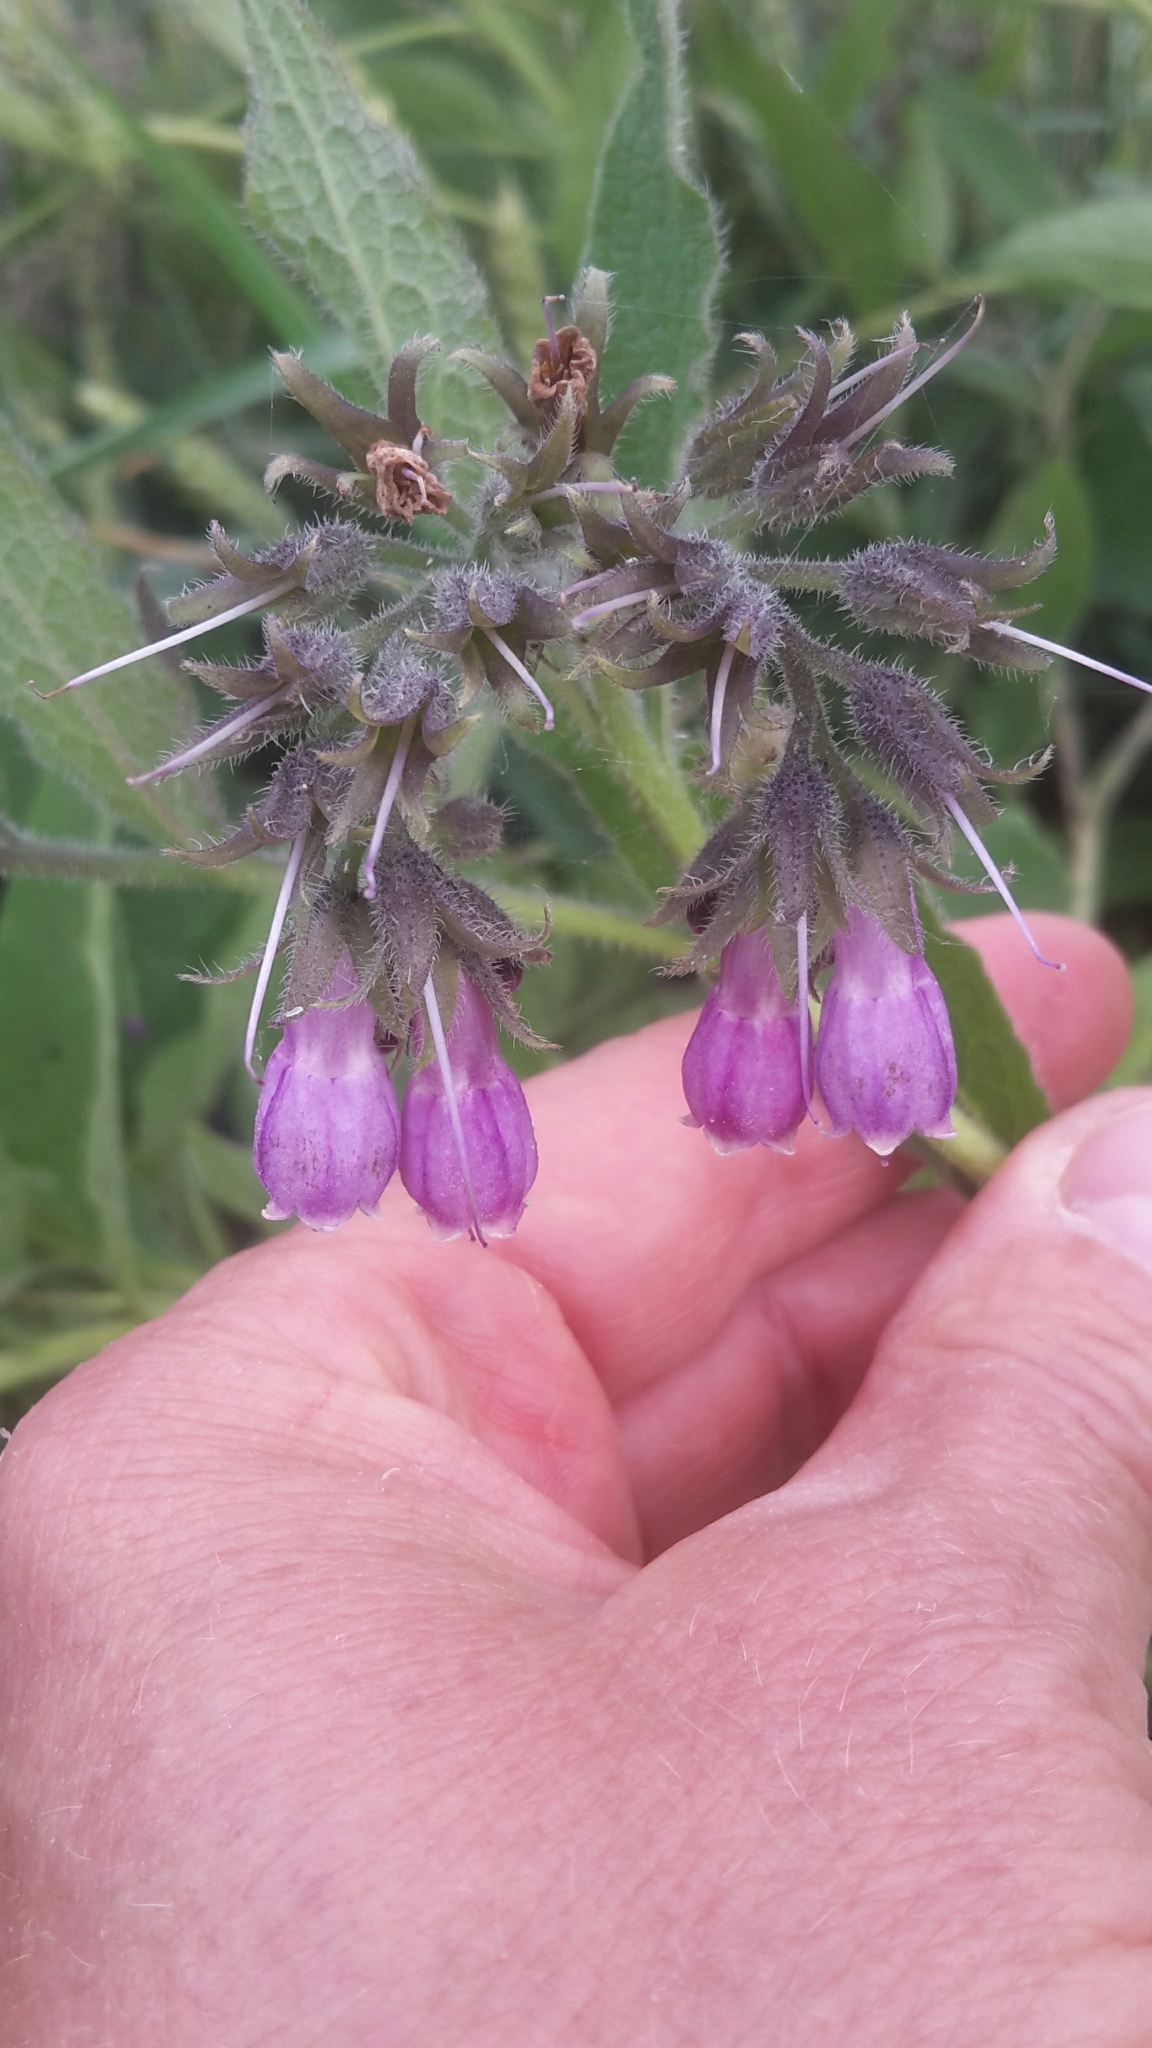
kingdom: Plantae
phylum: Tracheophyta
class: Magnoliopsida
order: Boraginales
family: Boraginaceae
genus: Symphytum
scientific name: Symphytum officinale
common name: Common comfrey
